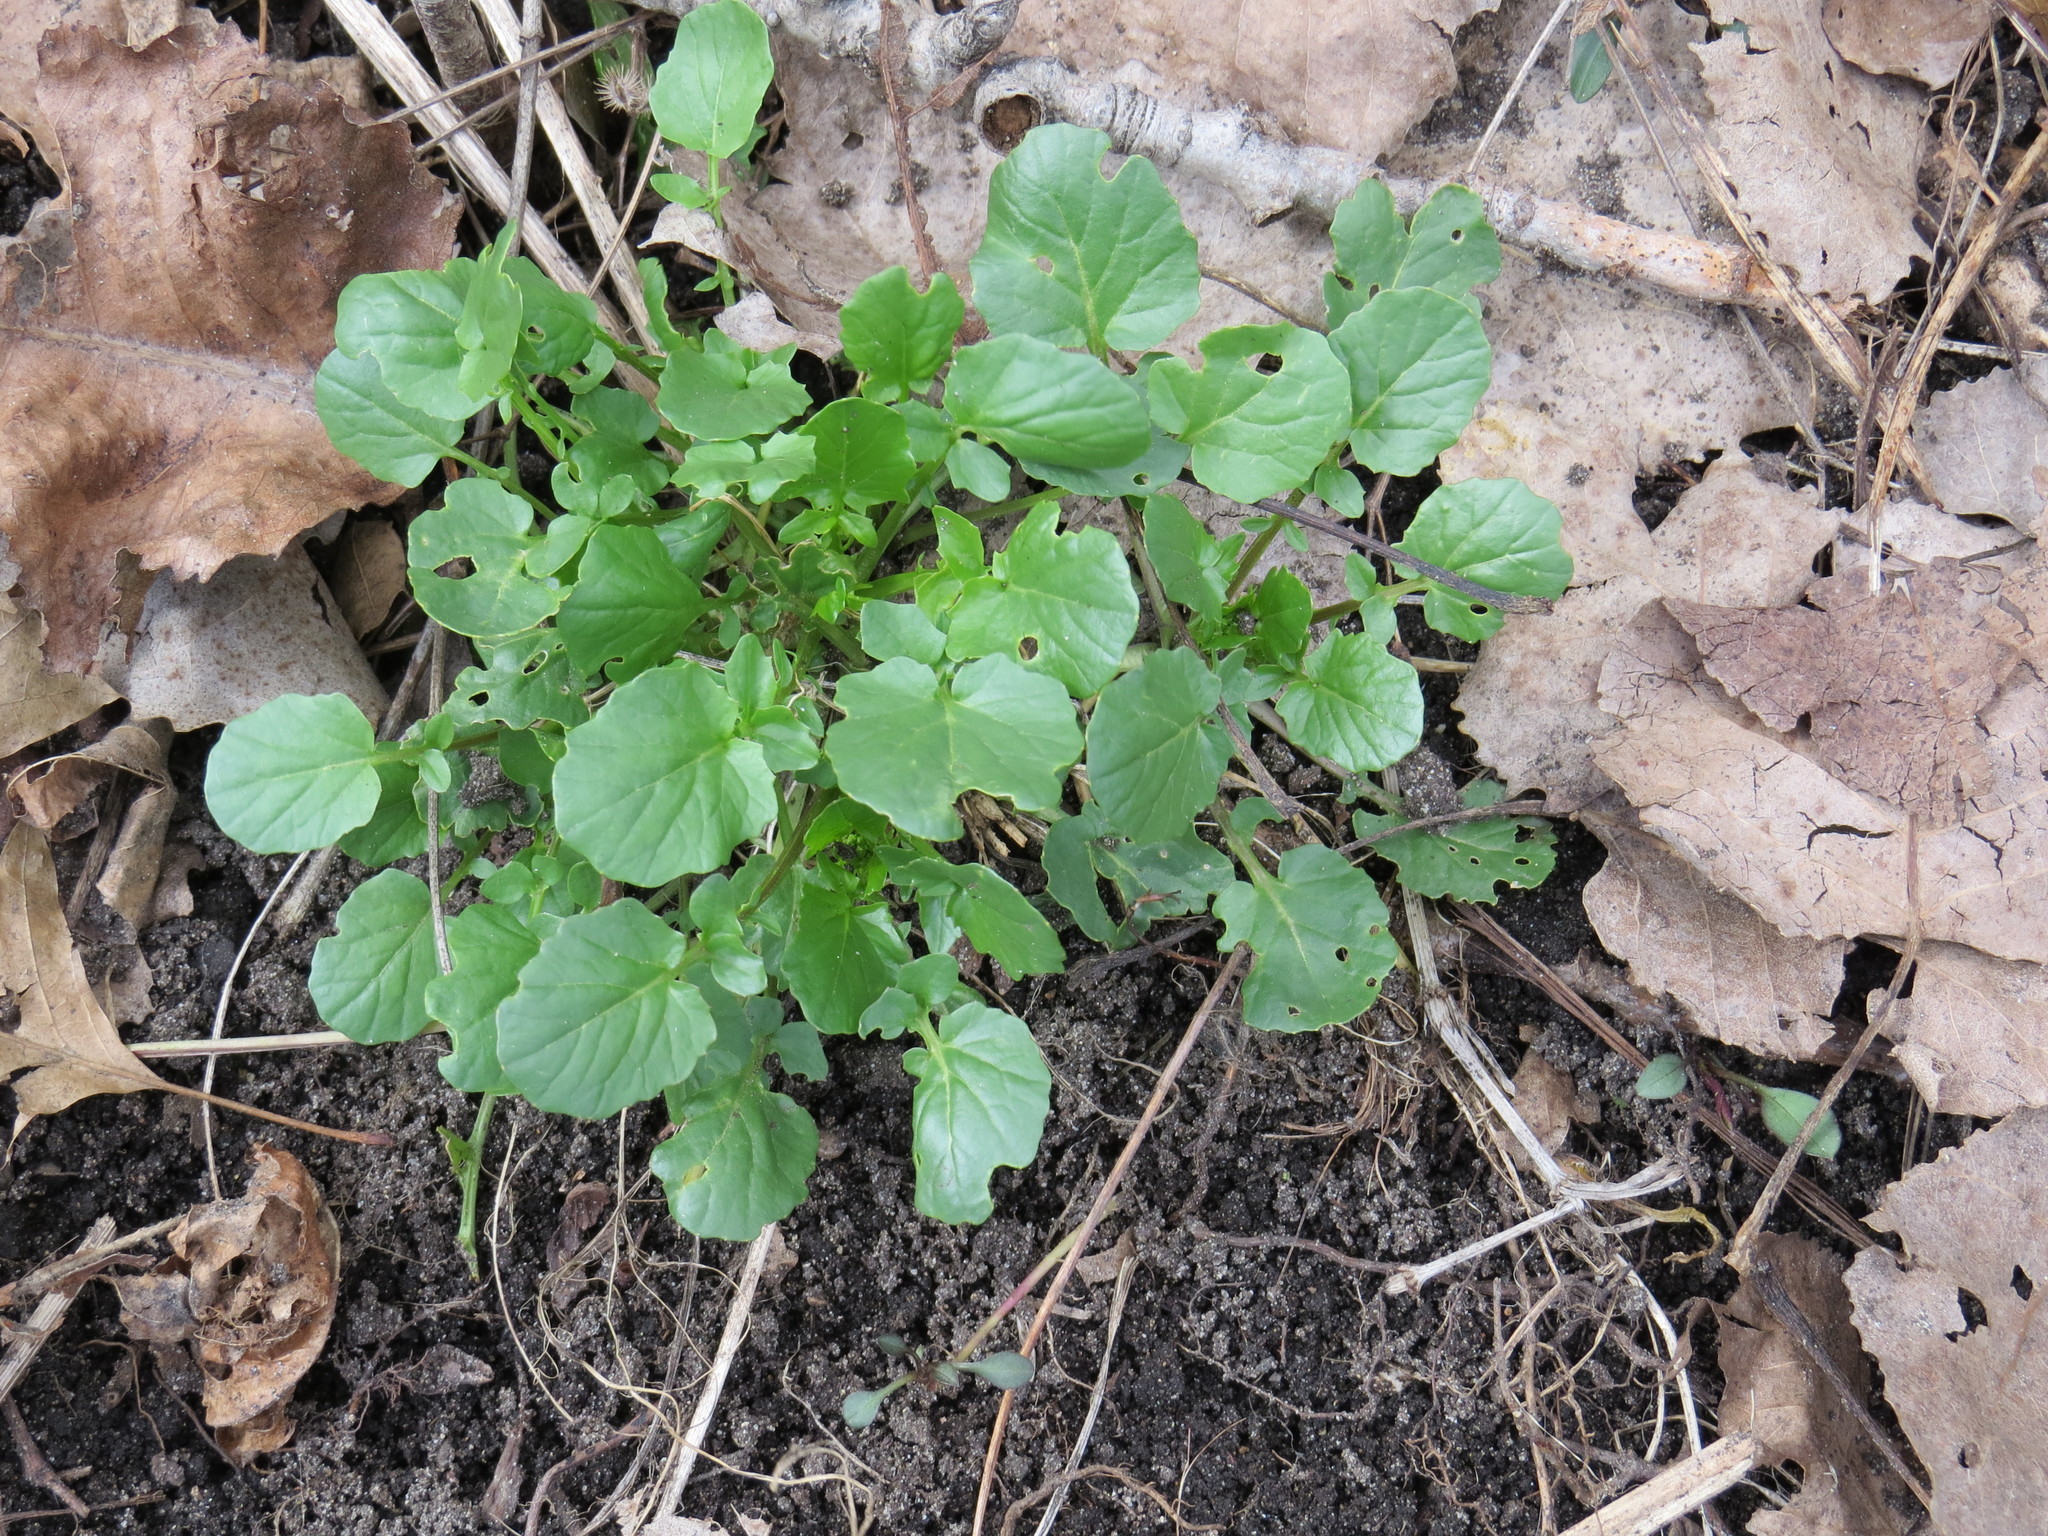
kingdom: Plantae
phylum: Tracheophyta
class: Magnoliopsida
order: Brassicales
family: Brassicaceae
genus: Barbarea
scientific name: Barbarea vulgaris
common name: Cressy-greens
